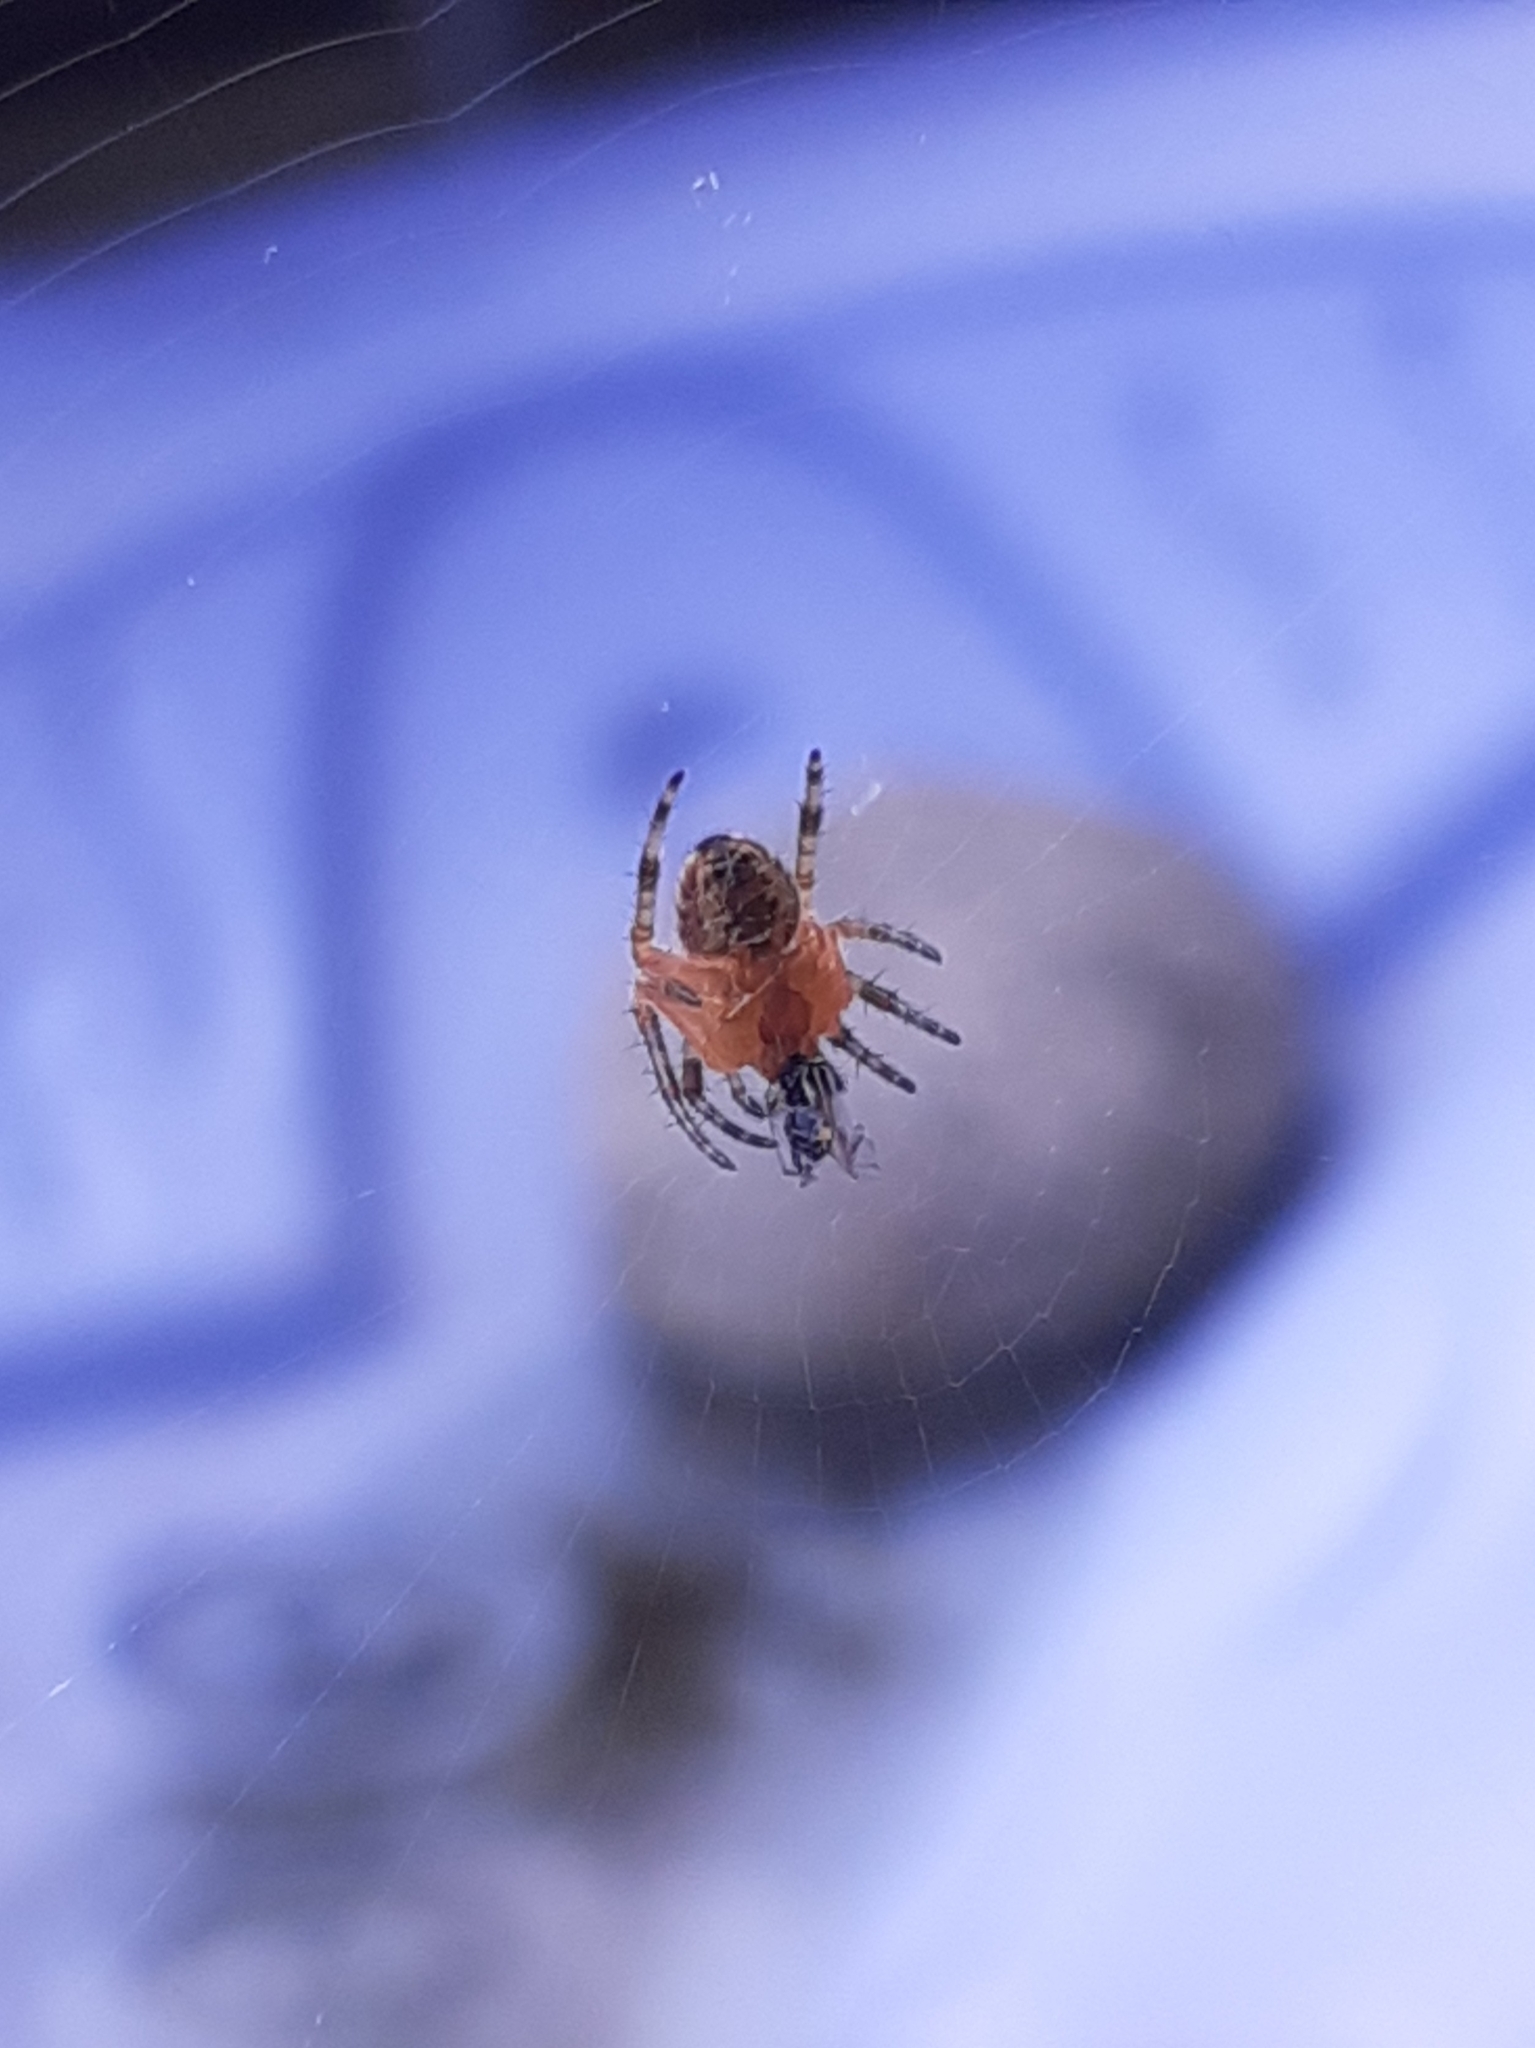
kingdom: Animalia
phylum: Arthropoda
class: Arachnida
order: Araneae
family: Araneidae
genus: Araneus
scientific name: Araneus diadematus
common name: Cross orbweaver
